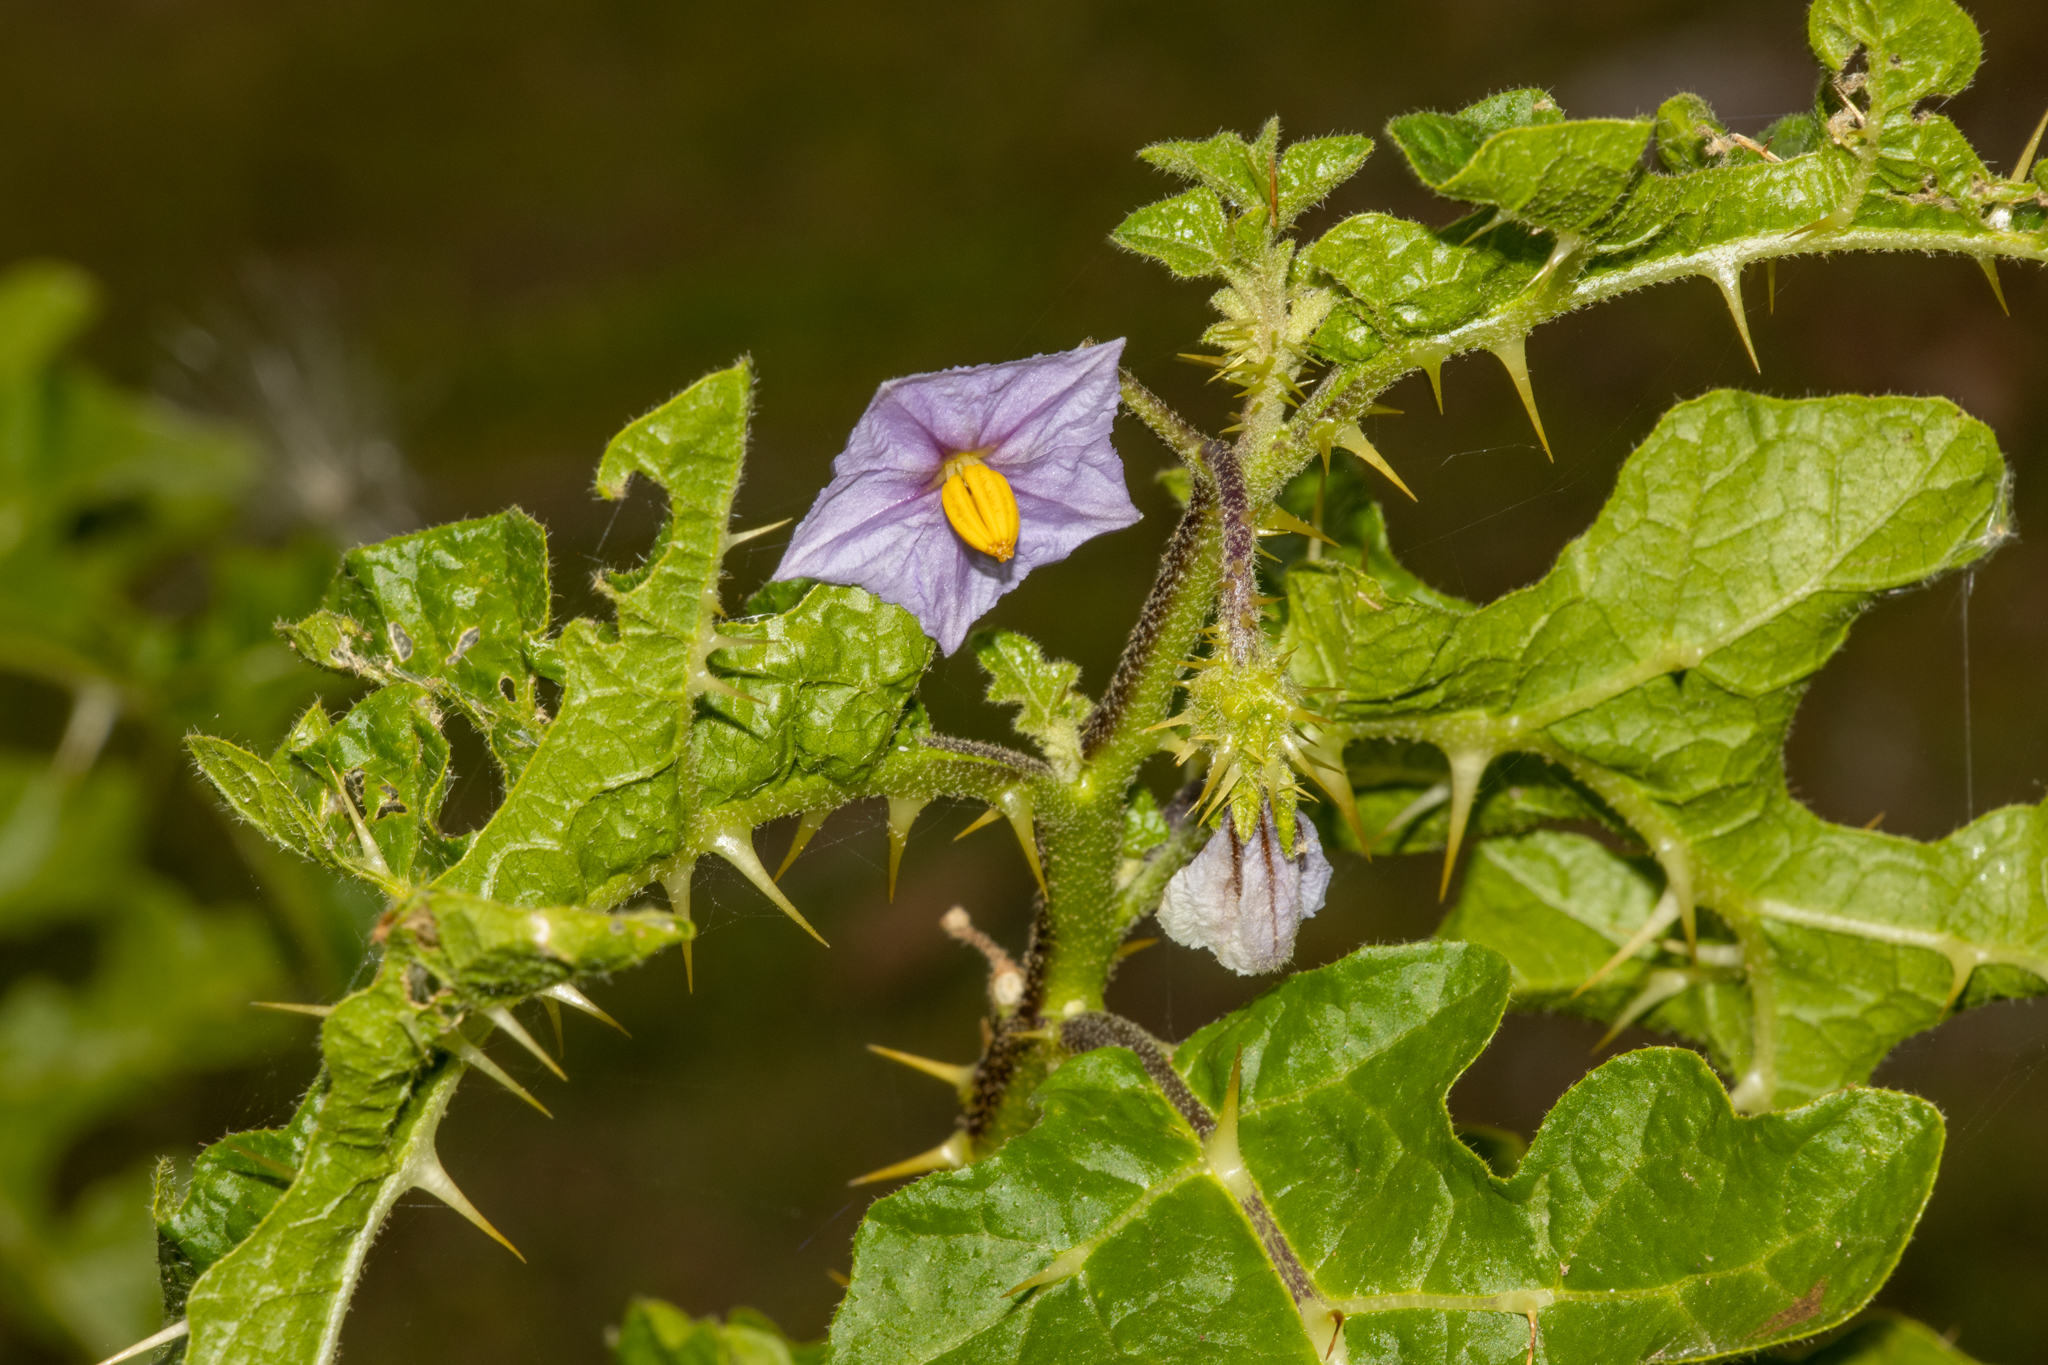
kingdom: Plantae
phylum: Tracheophyta
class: Magnoliopsida
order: Solanales
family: Solanaceae
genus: Solanum
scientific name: Solanum linnaeanum
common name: Nightshade
